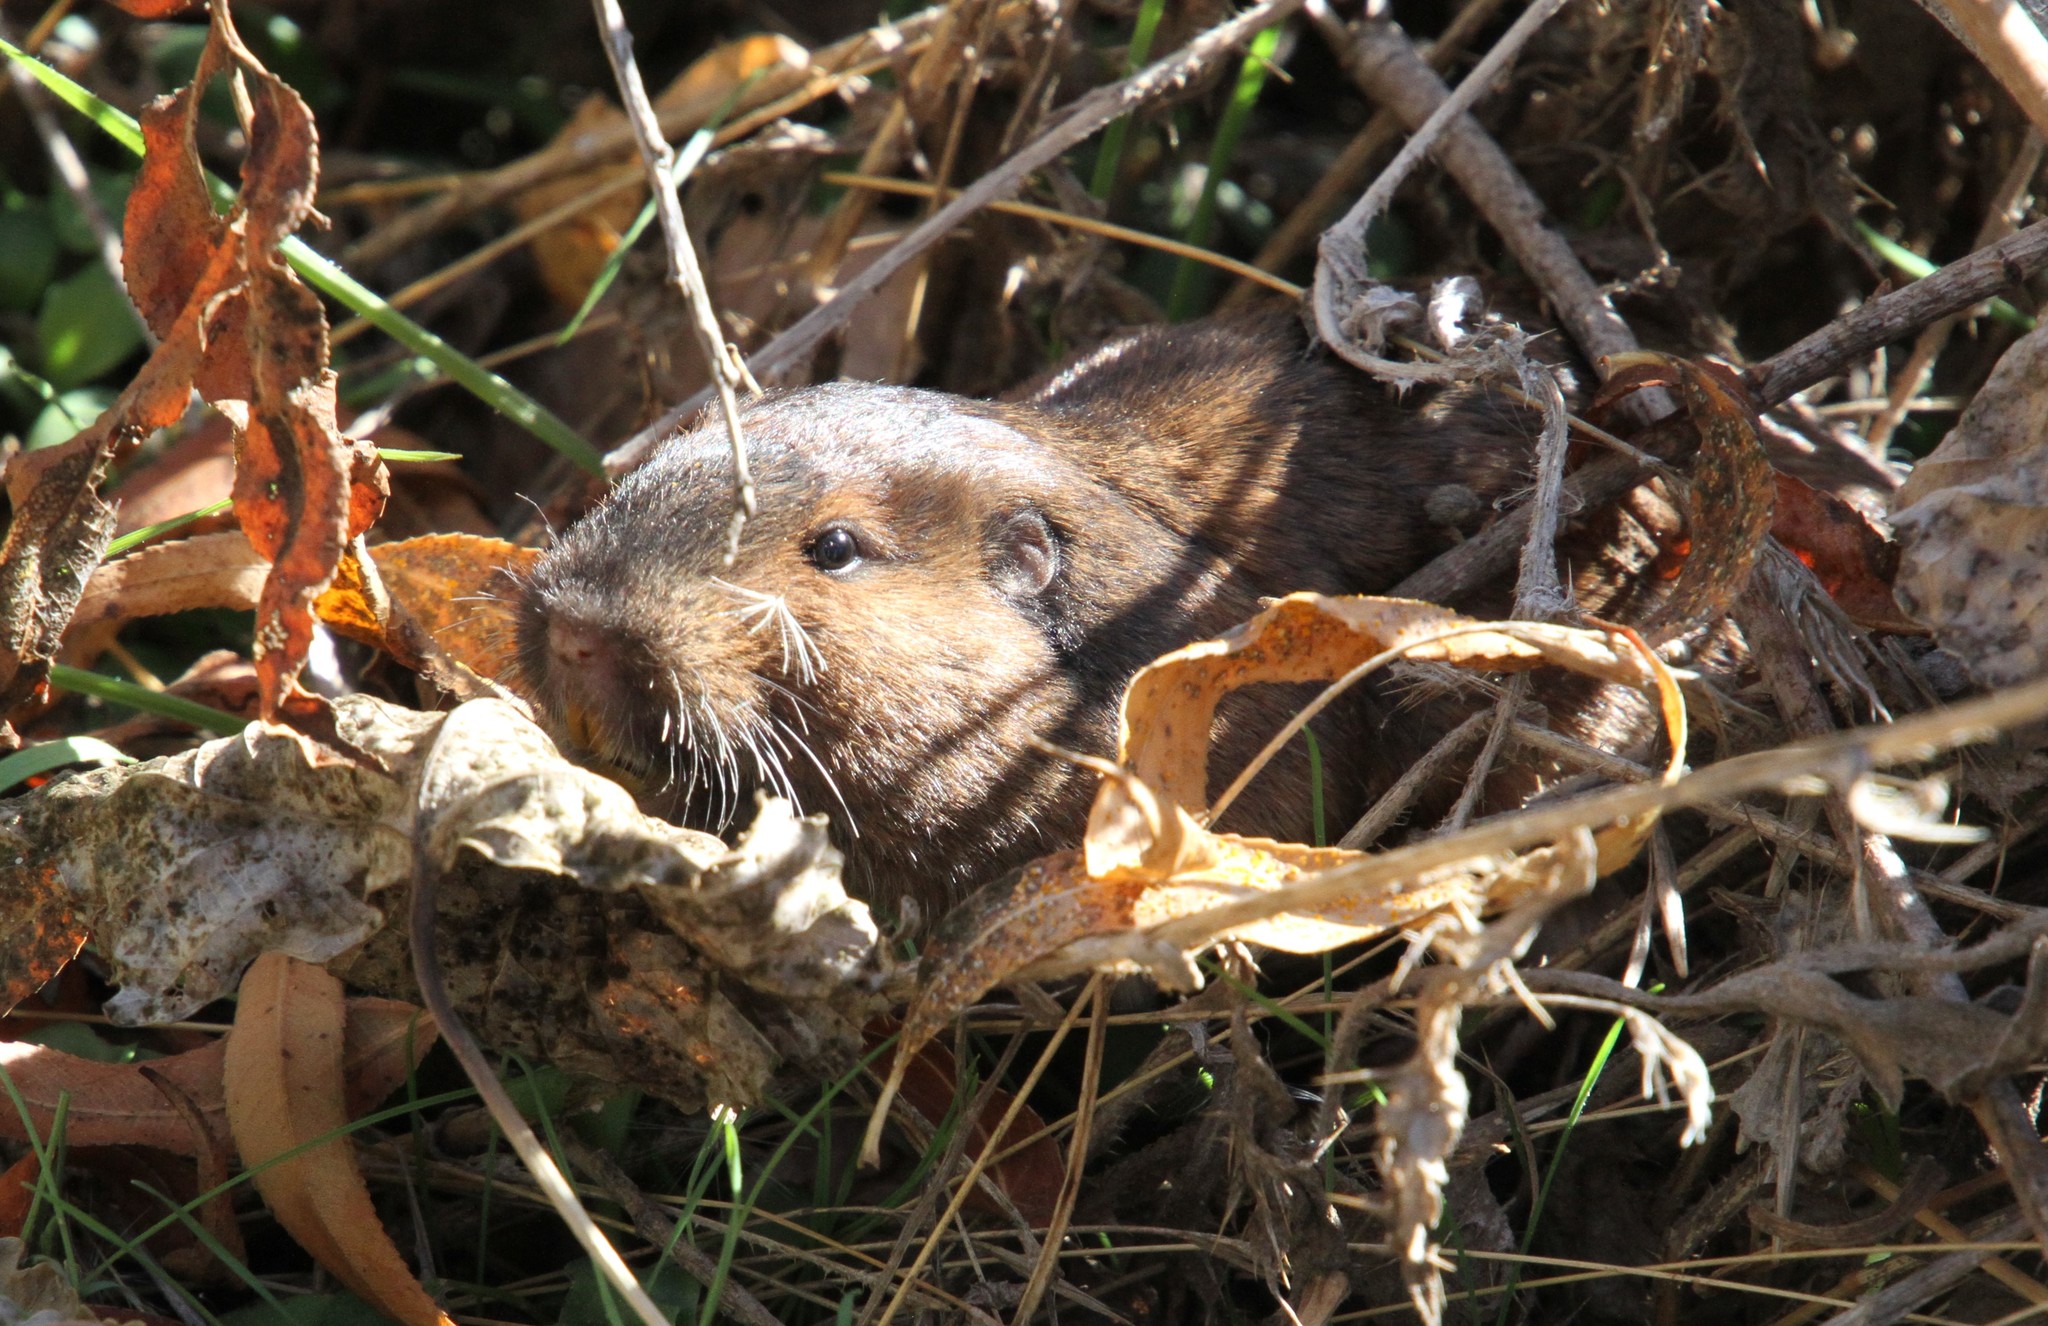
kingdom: Animalia
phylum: Chordata
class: Mammalia
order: Rodentia
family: Geomyidae
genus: Thomomys
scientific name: Thomomys bottae
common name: Botta's pocket gopher
